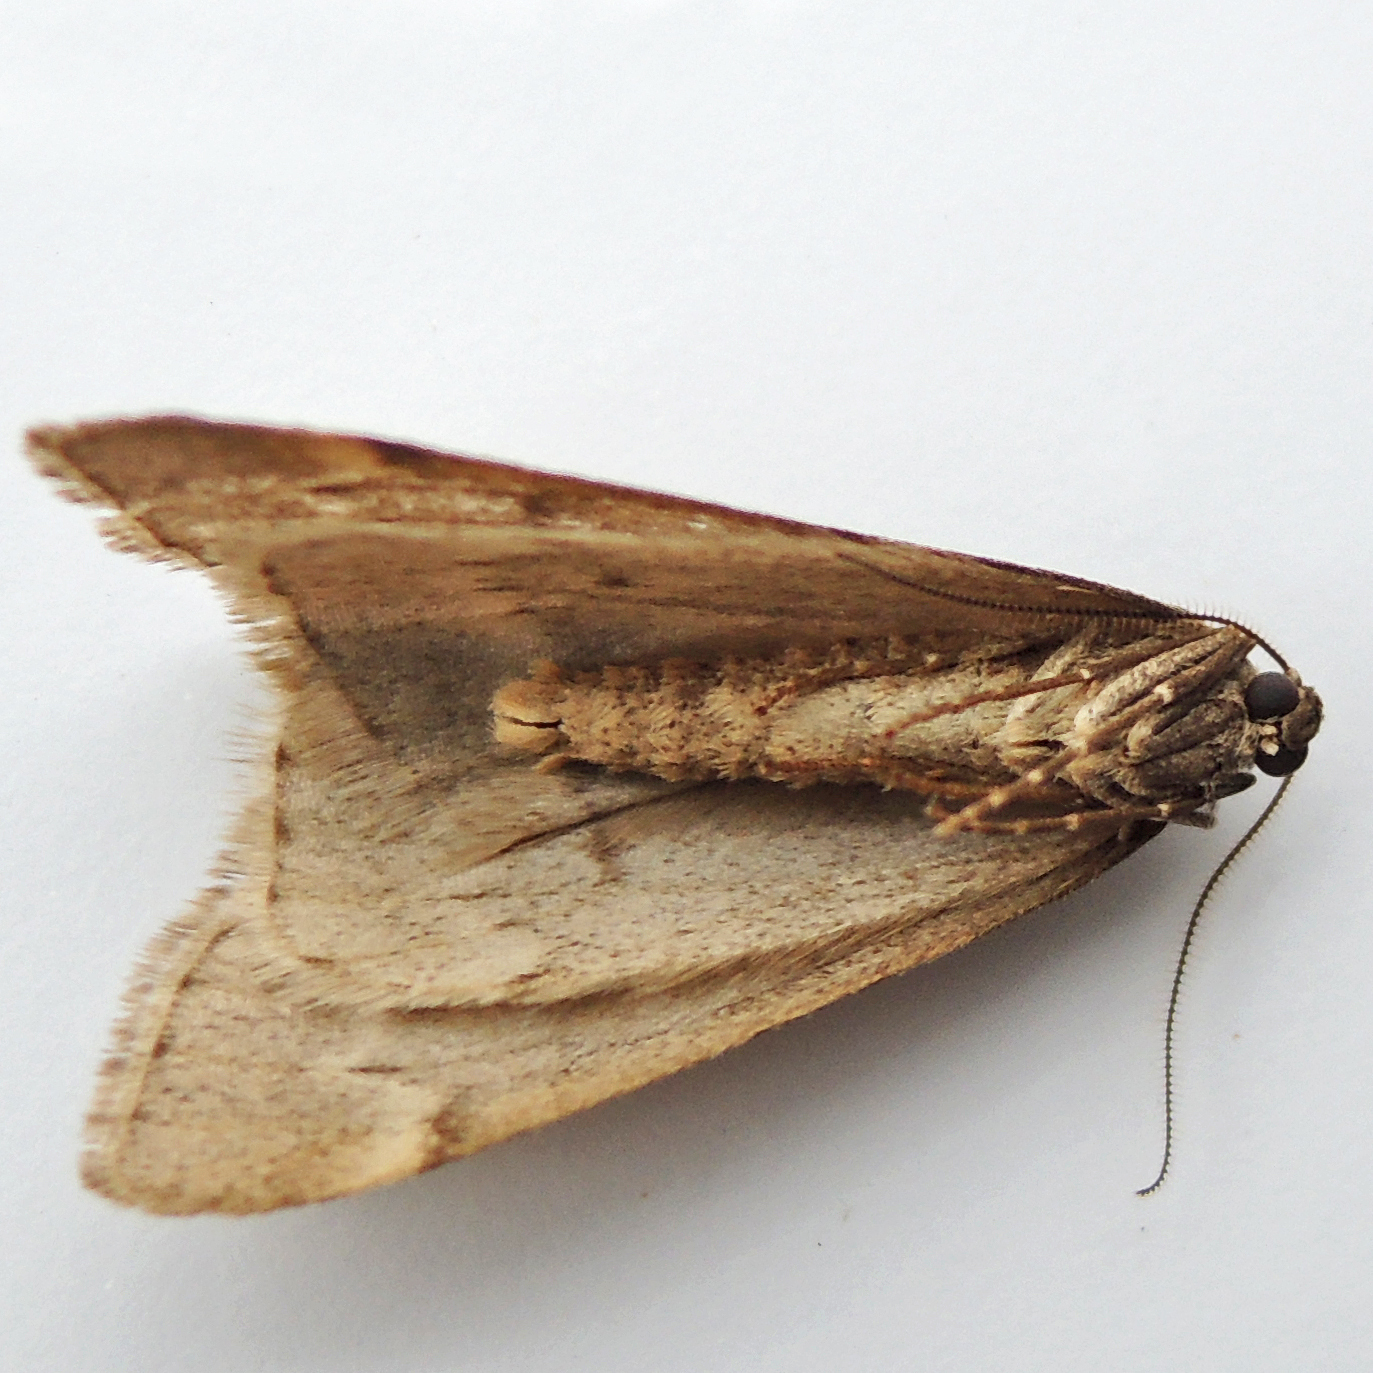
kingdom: Animalia
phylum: Arthropoda
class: Insecta
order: Lepidoptera
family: Geometridae
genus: Alsophila
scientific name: Alsophila pometaria
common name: Fall cankerworm
